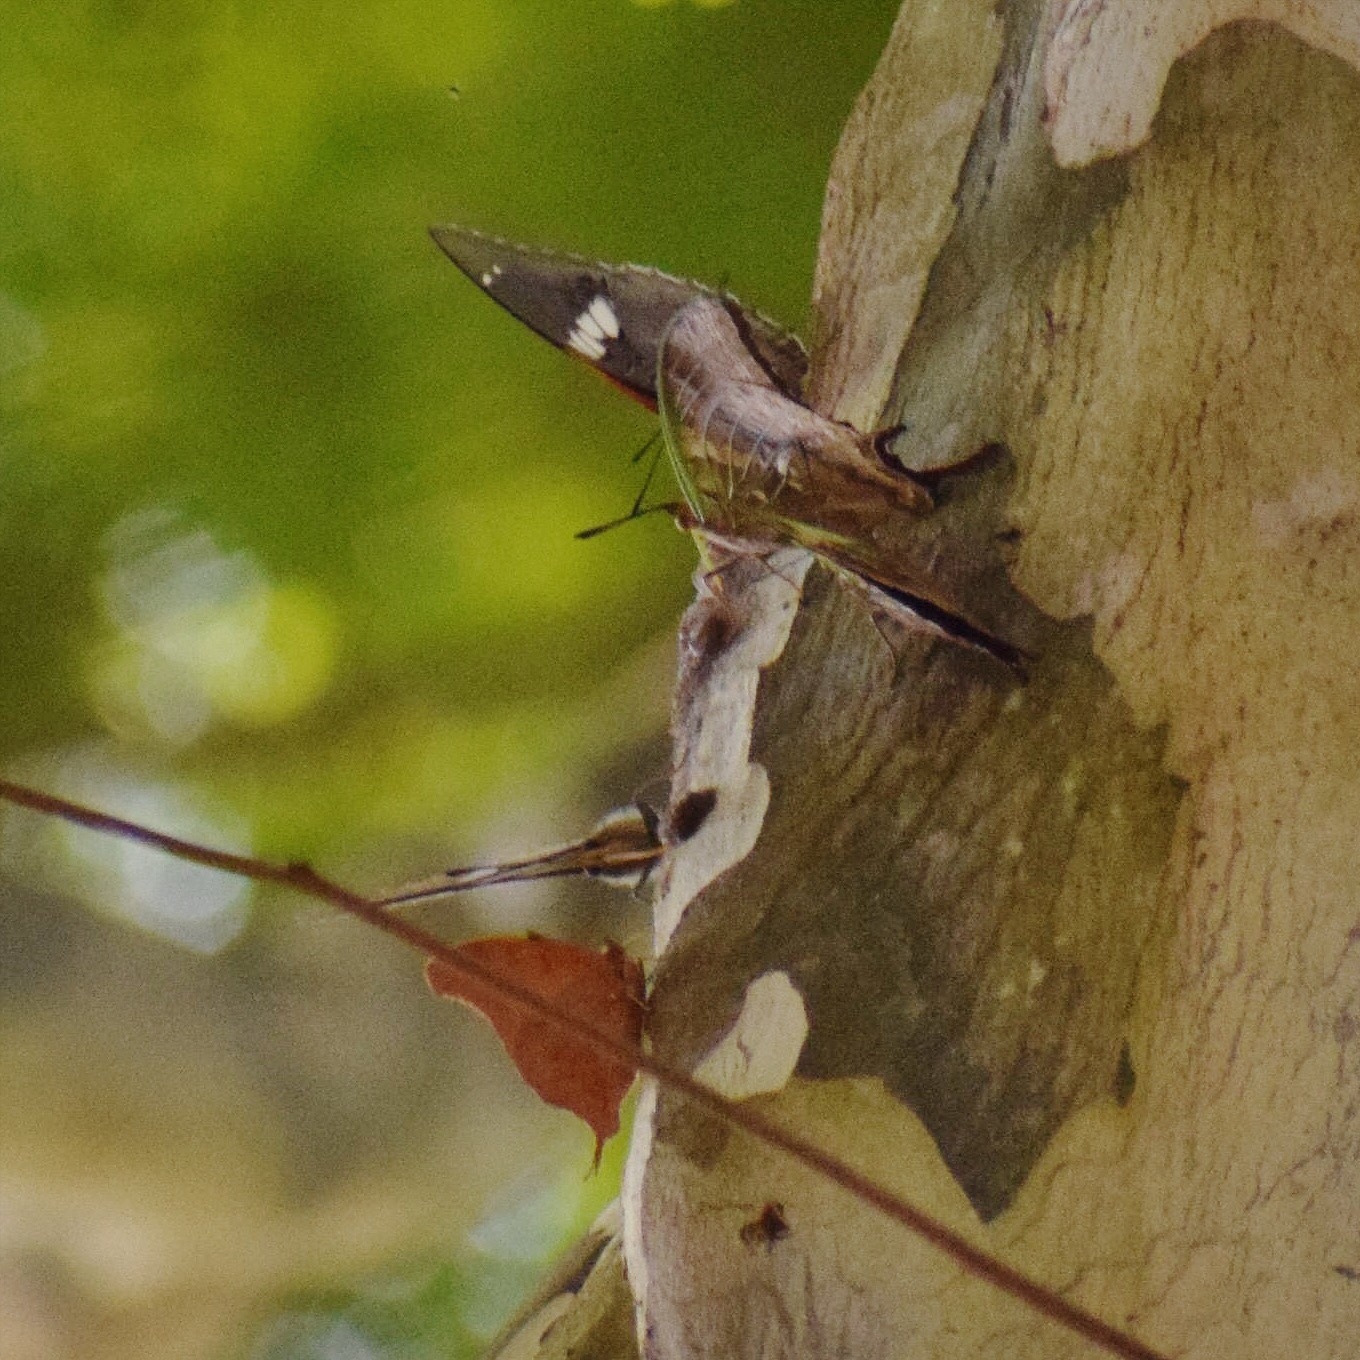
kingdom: Animalia
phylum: Arthropoda
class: Insecta
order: Lepidoptera
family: Nymphalidae
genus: Polyura
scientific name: Polyura
